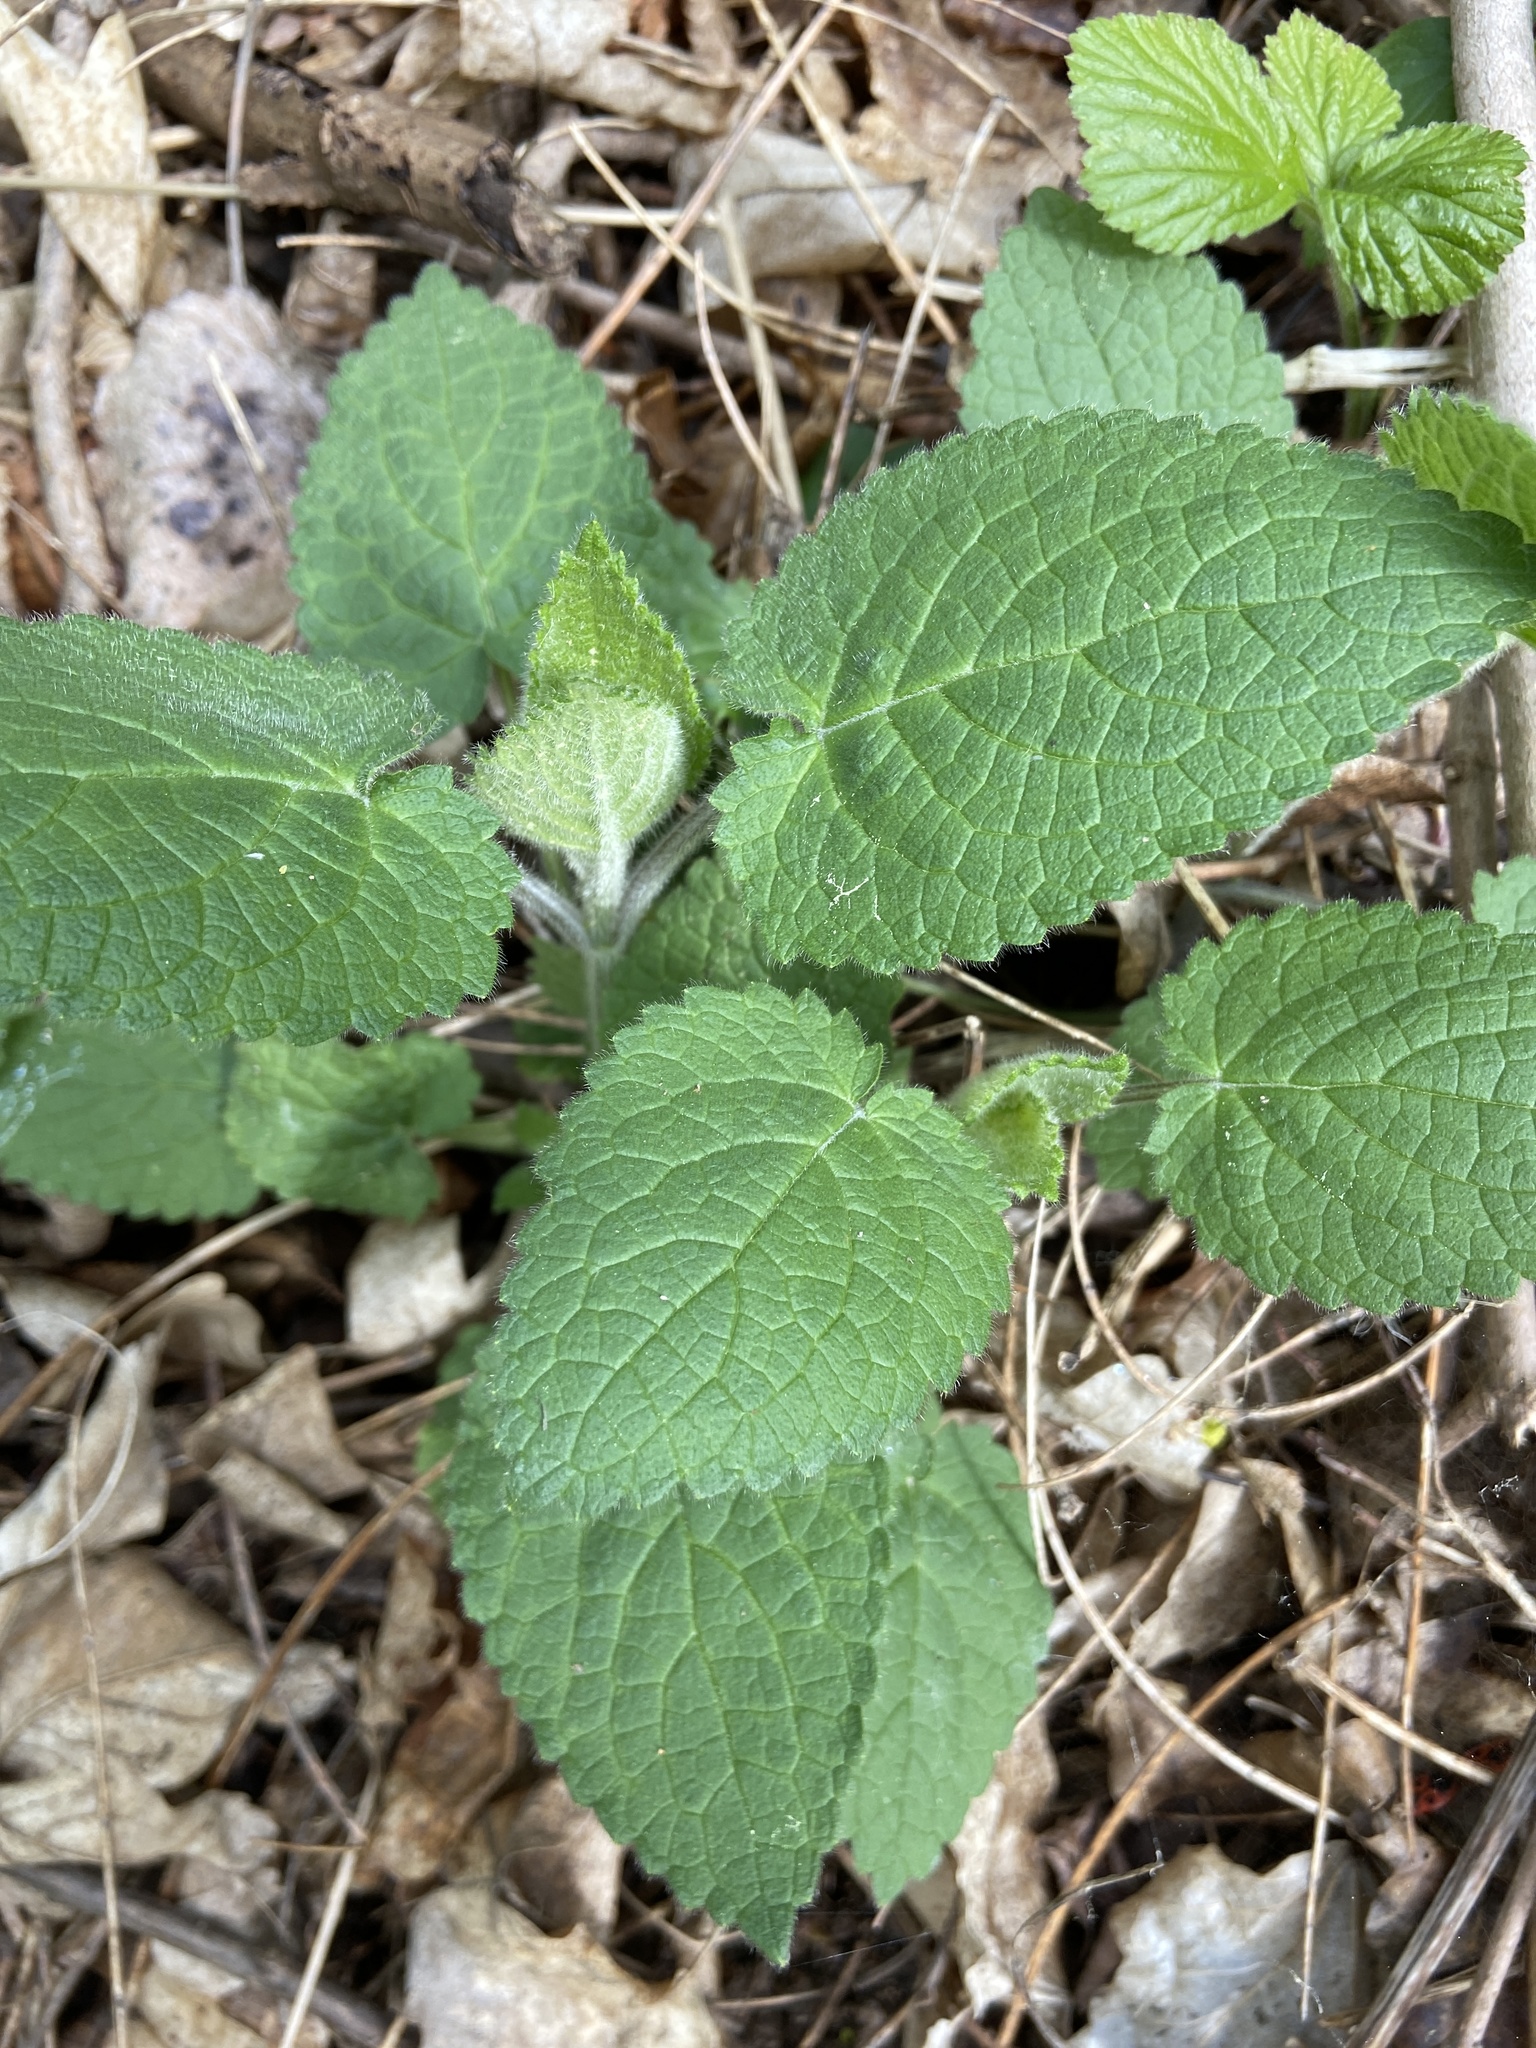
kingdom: Plantae
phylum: Tracheophyta
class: Magnoliopsida
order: Lamiales
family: Lamiaceae
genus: Stachys
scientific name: Stachys sylvatica
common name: Hedge woundwort
